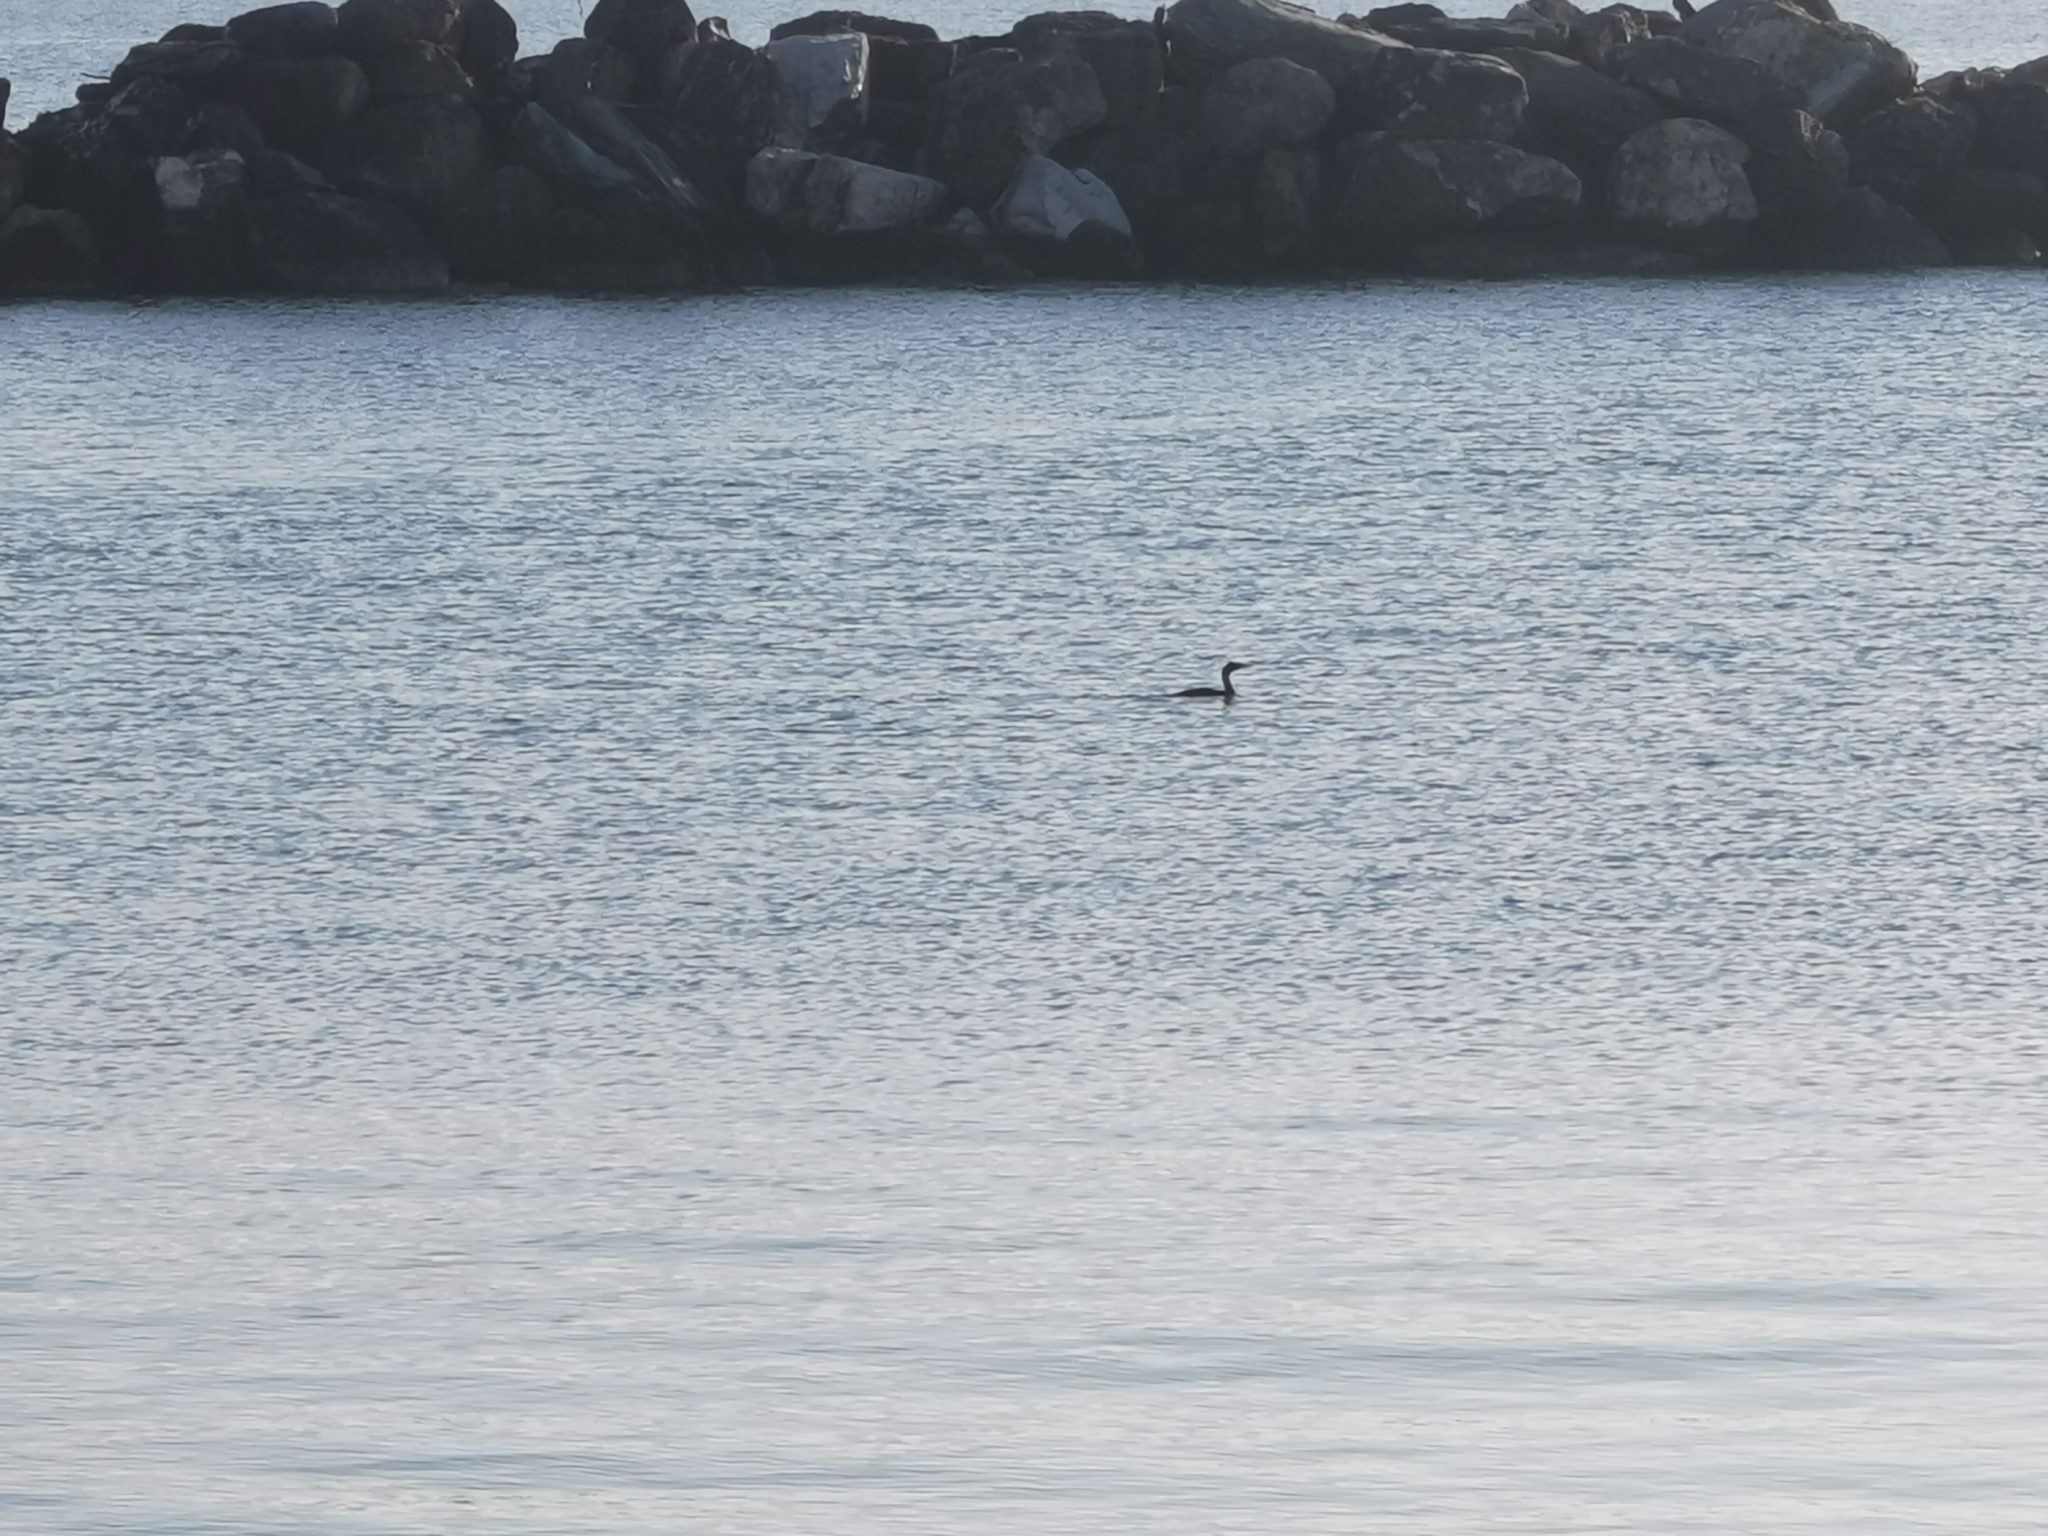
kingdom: Animalia
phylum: Chordata
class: Aves
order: Suliformes
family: Phalacrocoracidae
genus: Phalacrocorax
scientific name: Phalacrocorax aristotelis
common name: European shag
